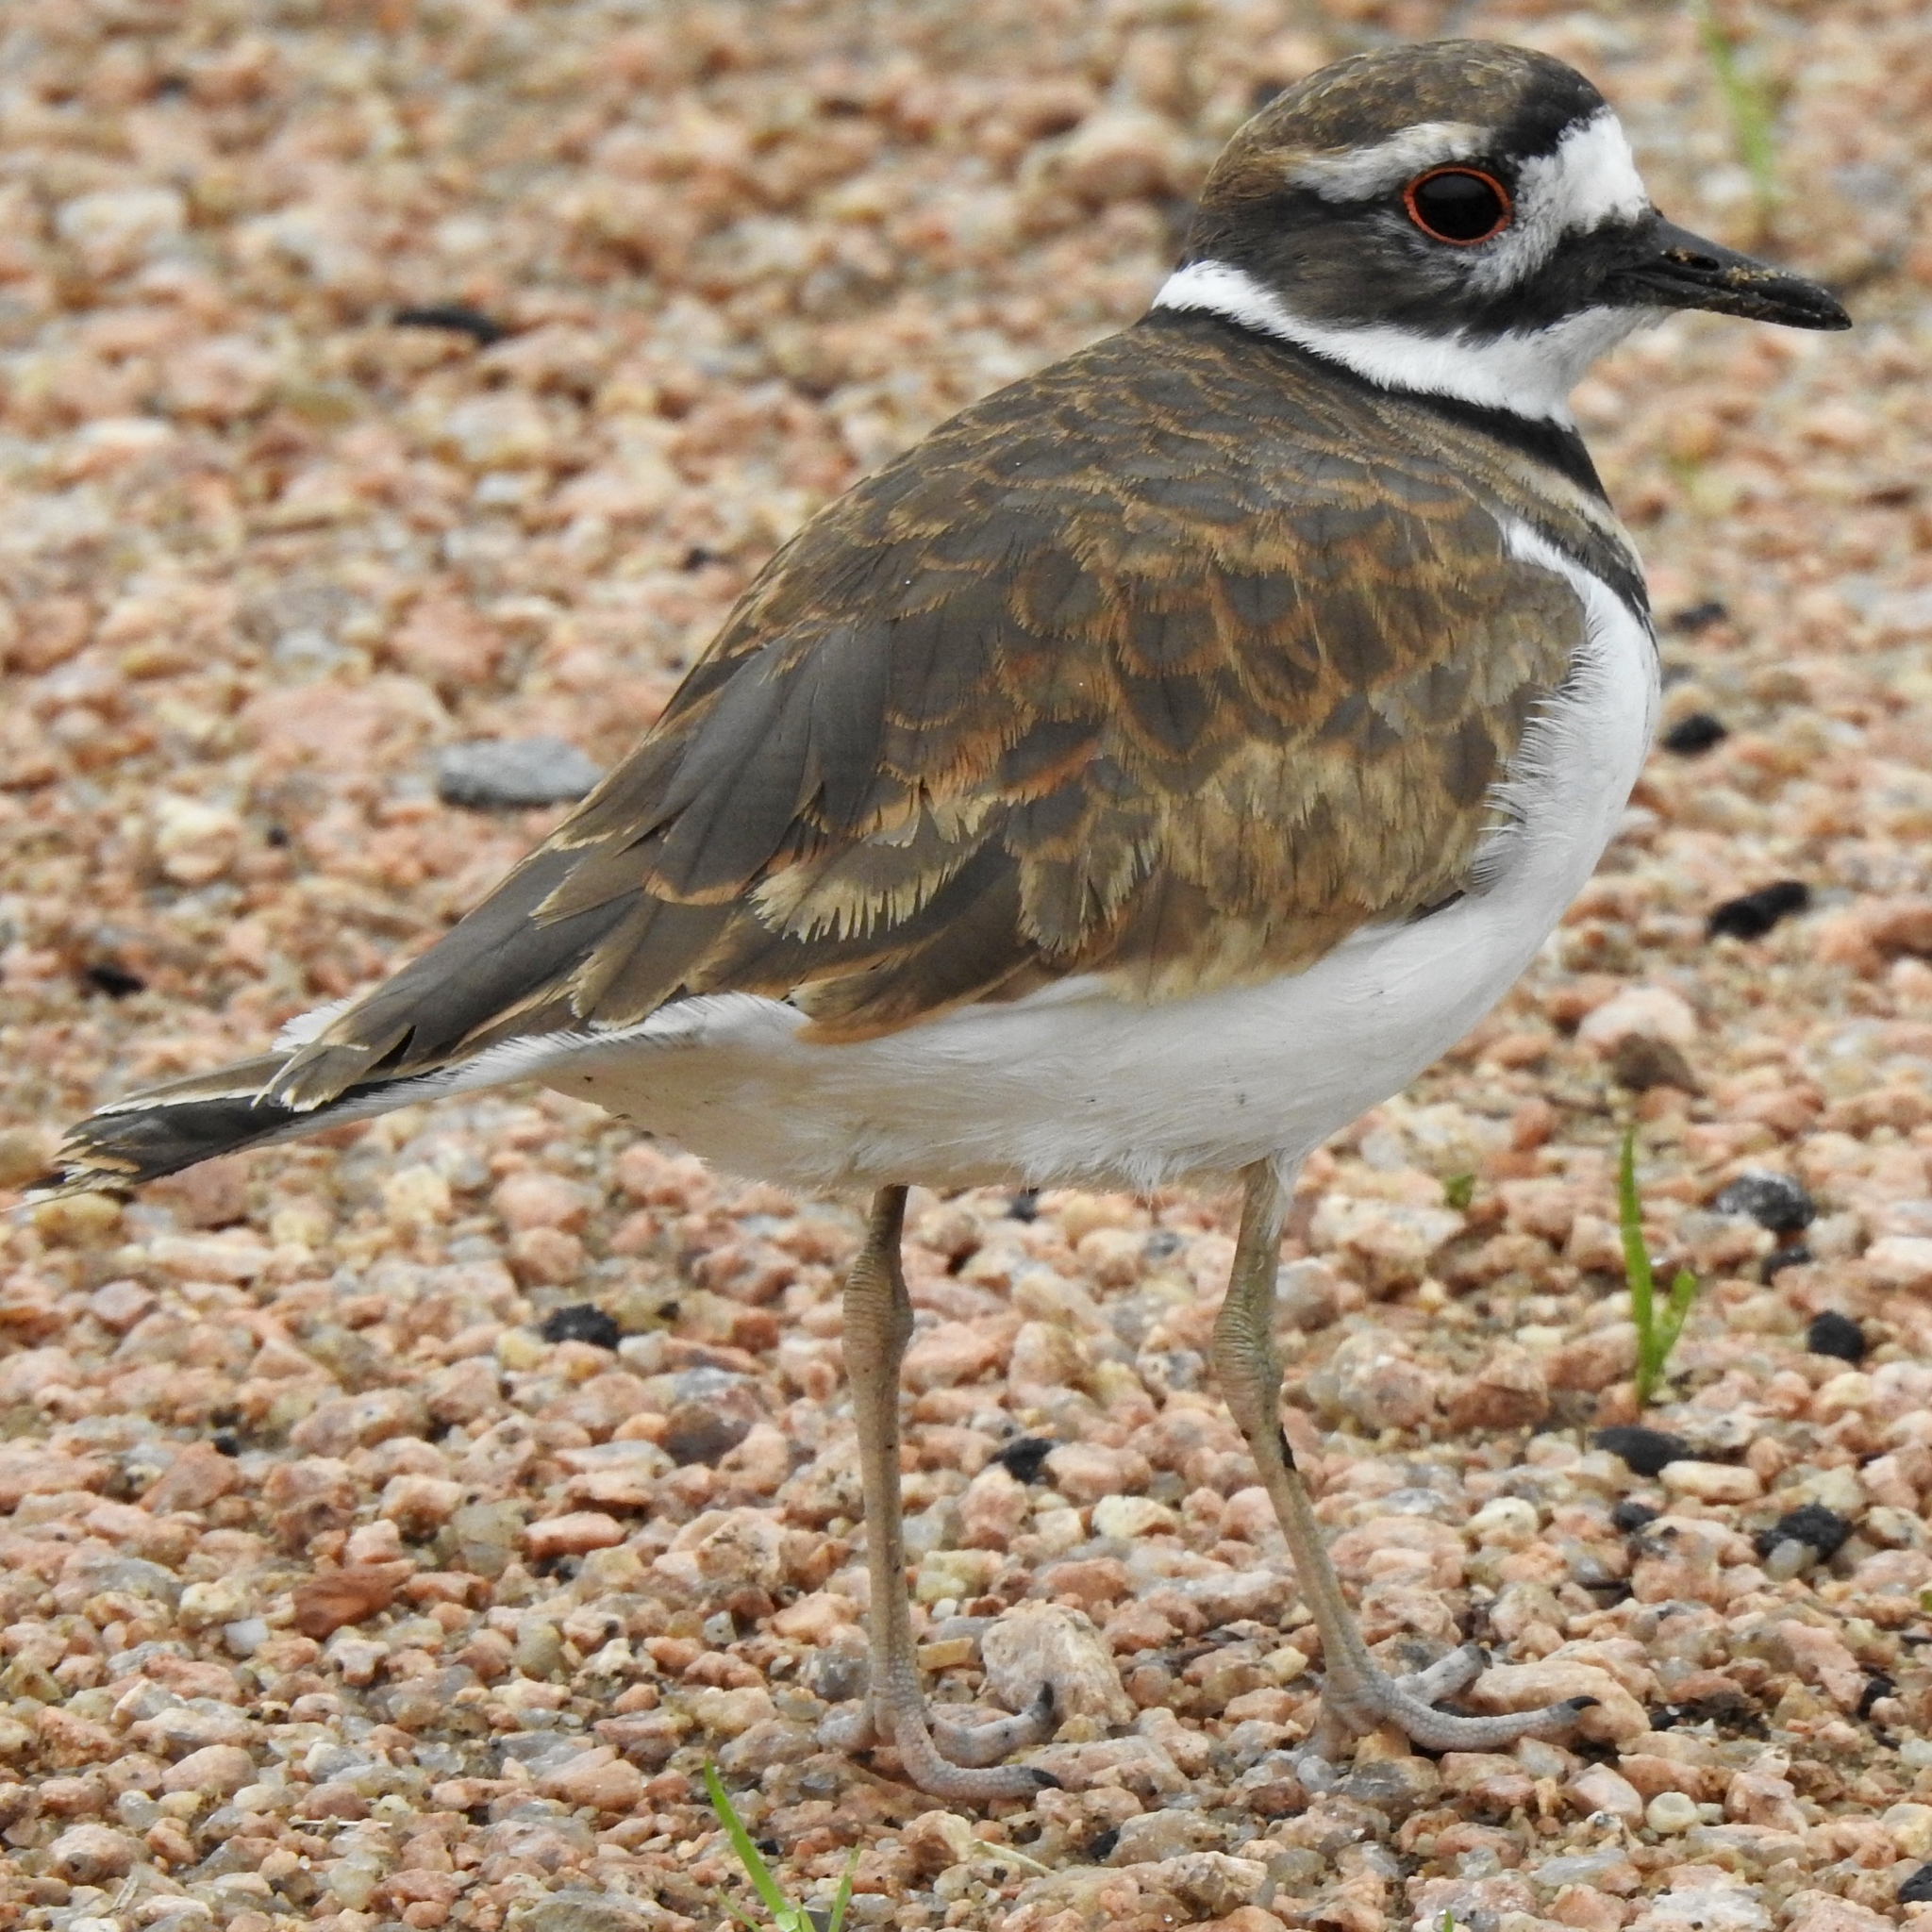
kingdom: Animalia
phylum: Chordata
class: Aves
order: Charadriiformes
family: Charadriidae
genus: Charadrius
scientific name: Charadrius vociferus
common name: Killdeer
